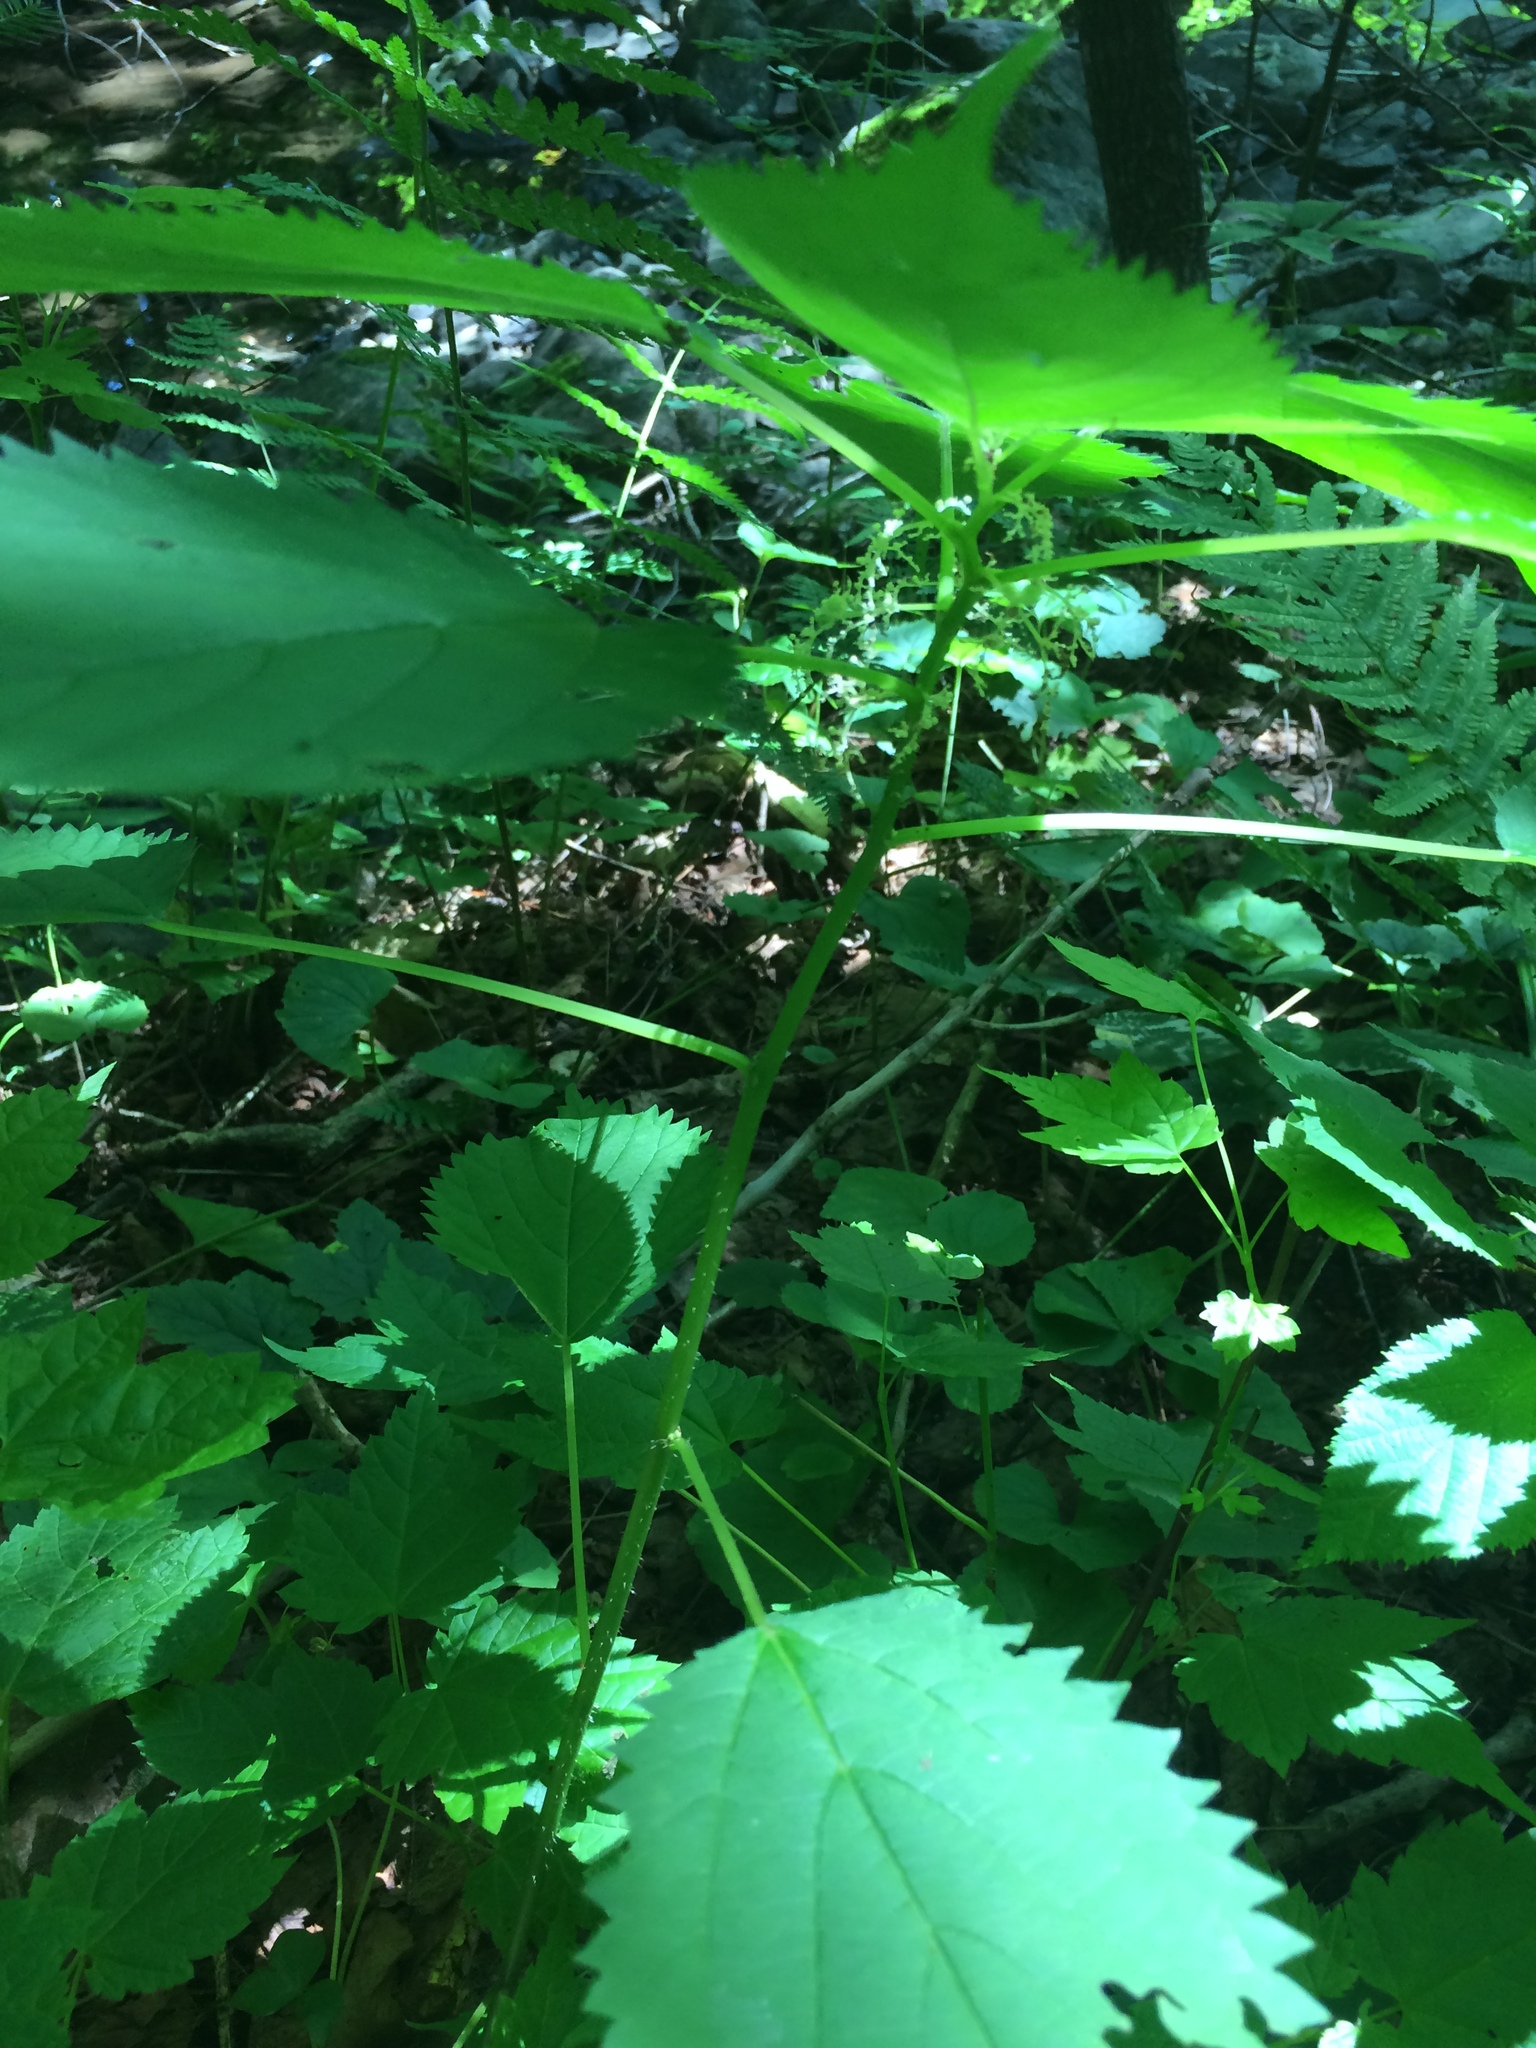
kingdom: Plantae
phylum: Tracheophyta
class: Magnoliopsida
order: Rosales
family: Urticaceae
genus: Laportea
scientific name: Laportea canadensis
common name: Canada nettle
